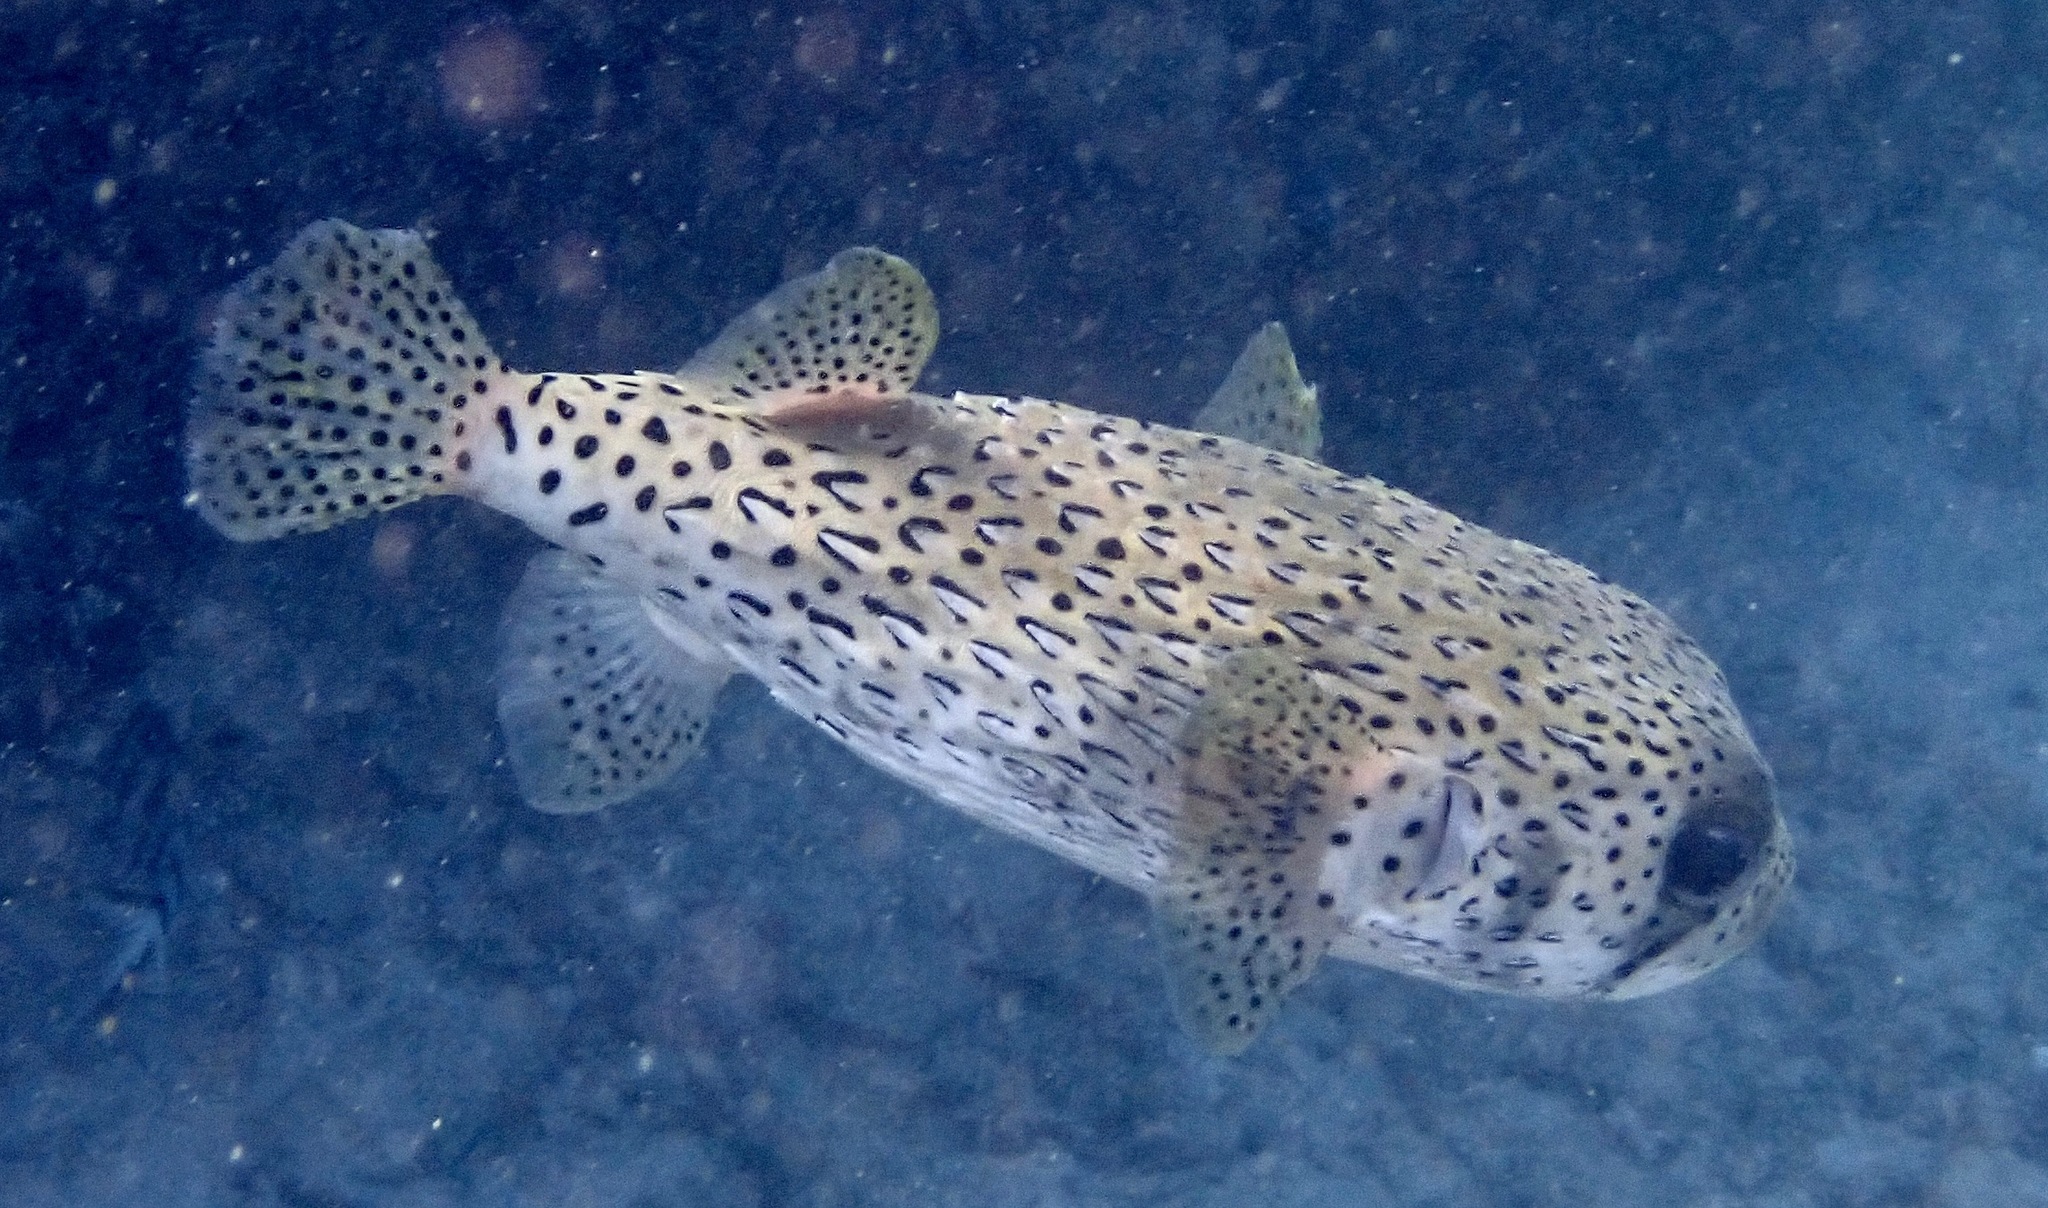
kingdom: Animalia
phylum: Chordata
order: Tetraodontiformes
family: Diodontidae
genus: Diodon
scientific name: Diodon hystrix
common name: Giant porcupinefish
